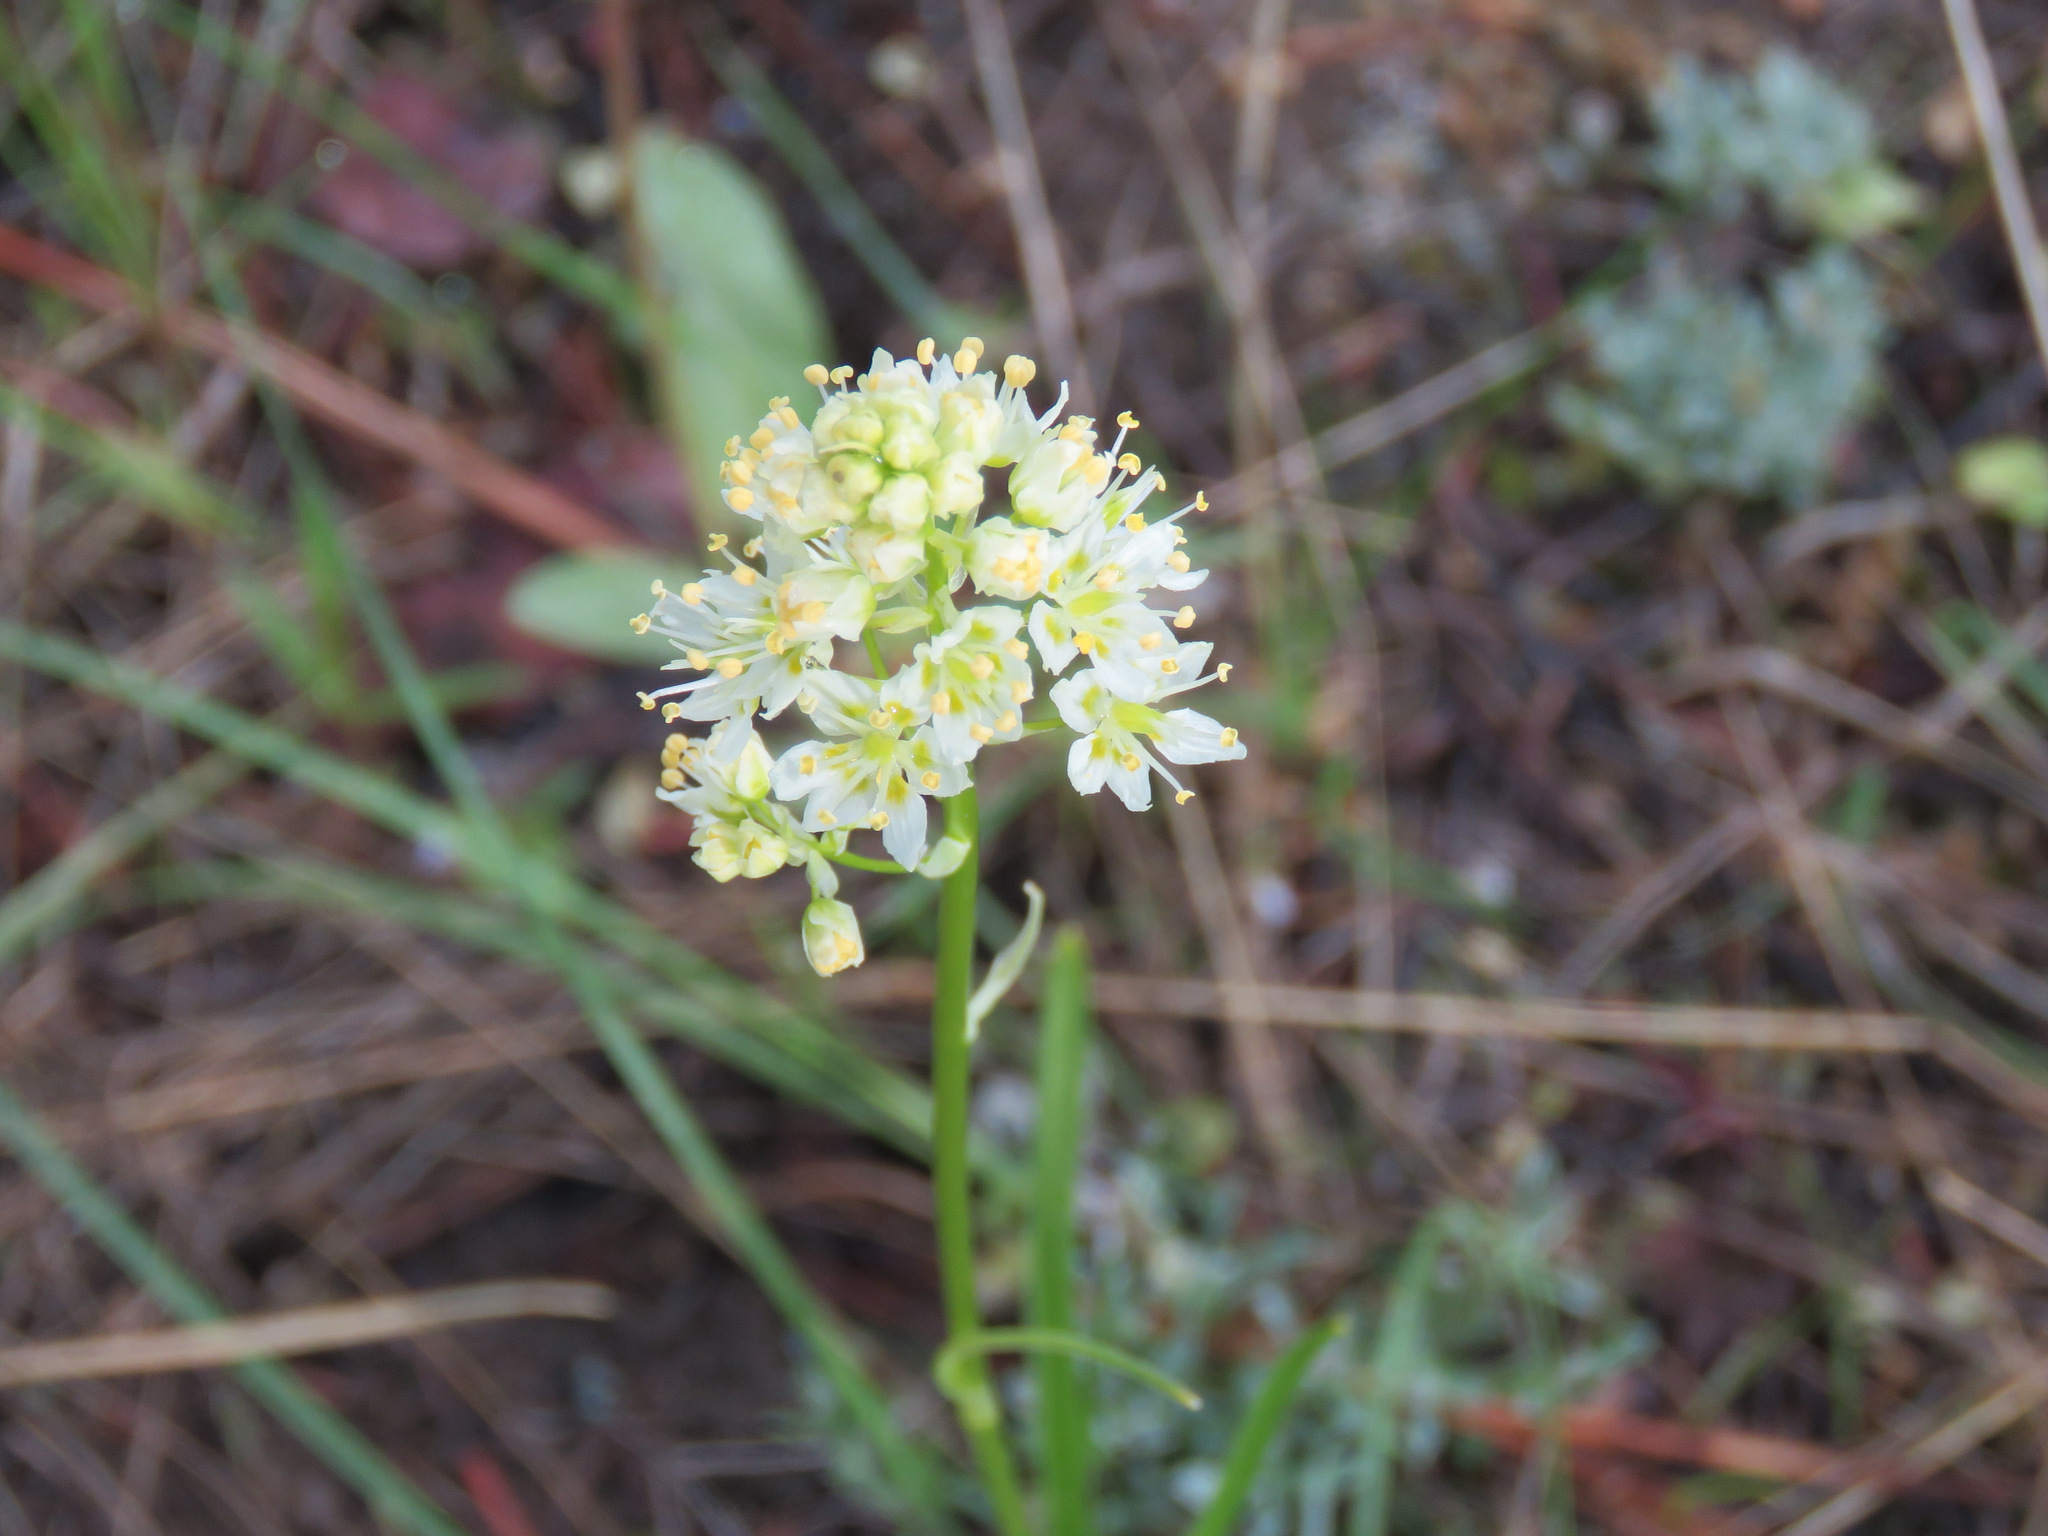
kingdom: Plantae
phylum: Tracheophyta
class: Liliopsida
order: Liliales
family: Melanthiaceae
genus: Toxicoscordion
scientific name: Toxicoscordion venenosum
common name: Meadow death camas
